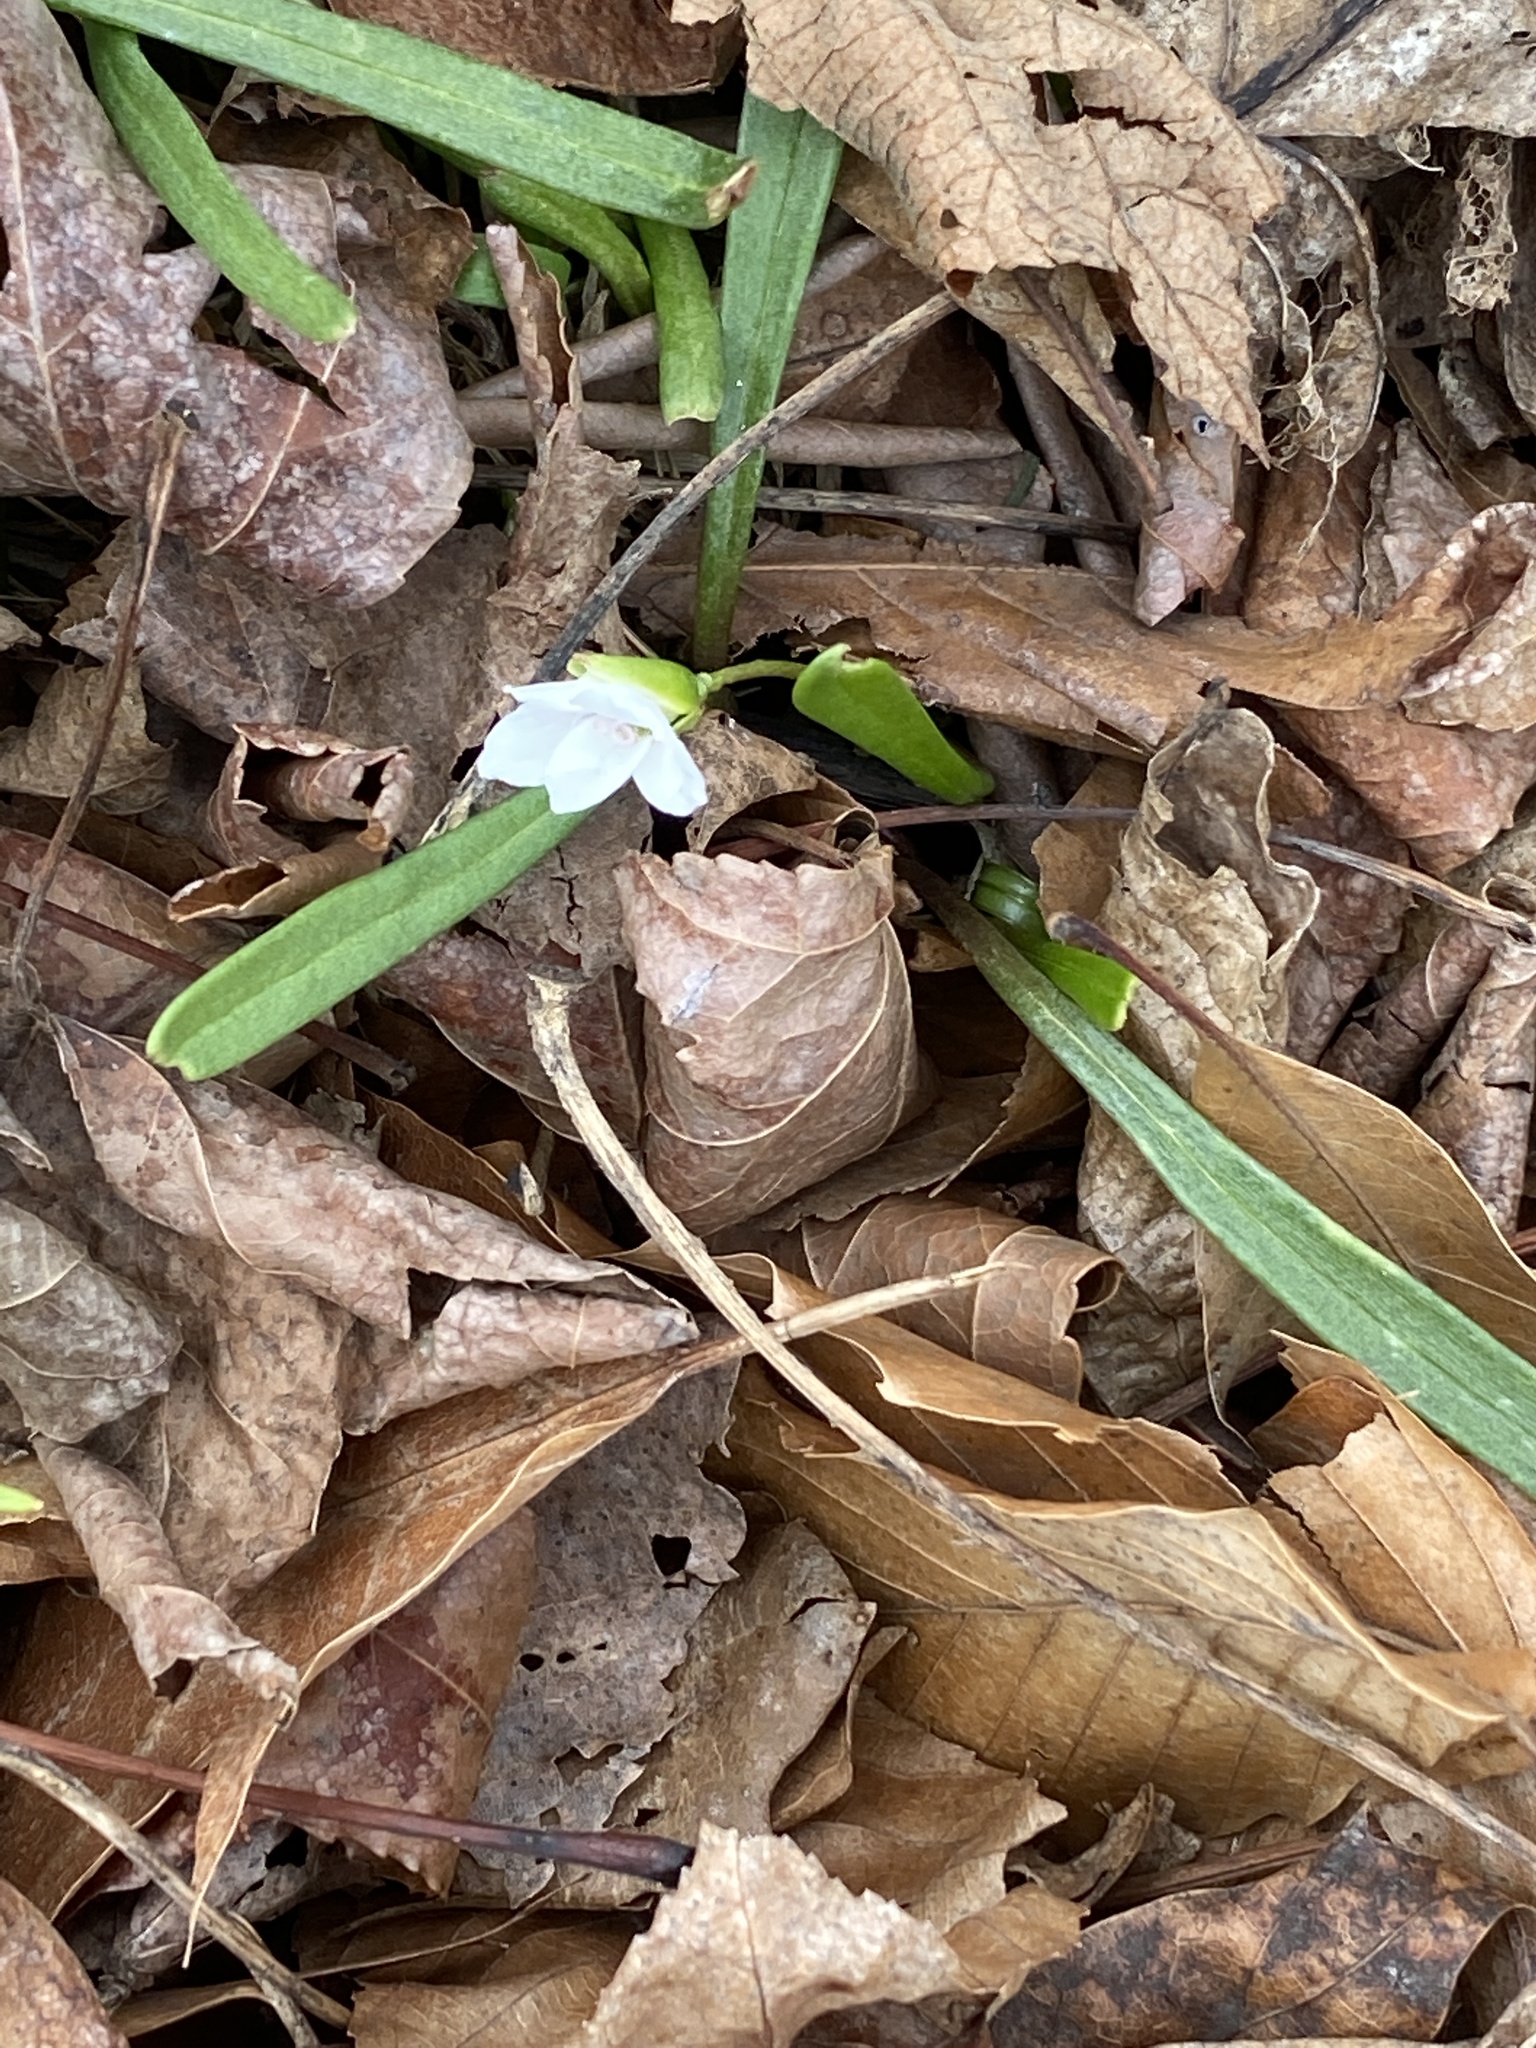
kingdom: Plantae
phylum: Tracheophyta
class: Magnoliopsida
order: Caryophyllales
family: Montiaceae
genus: Claytonia
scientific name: Claytonia virginica
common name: Virginia springbeauty
